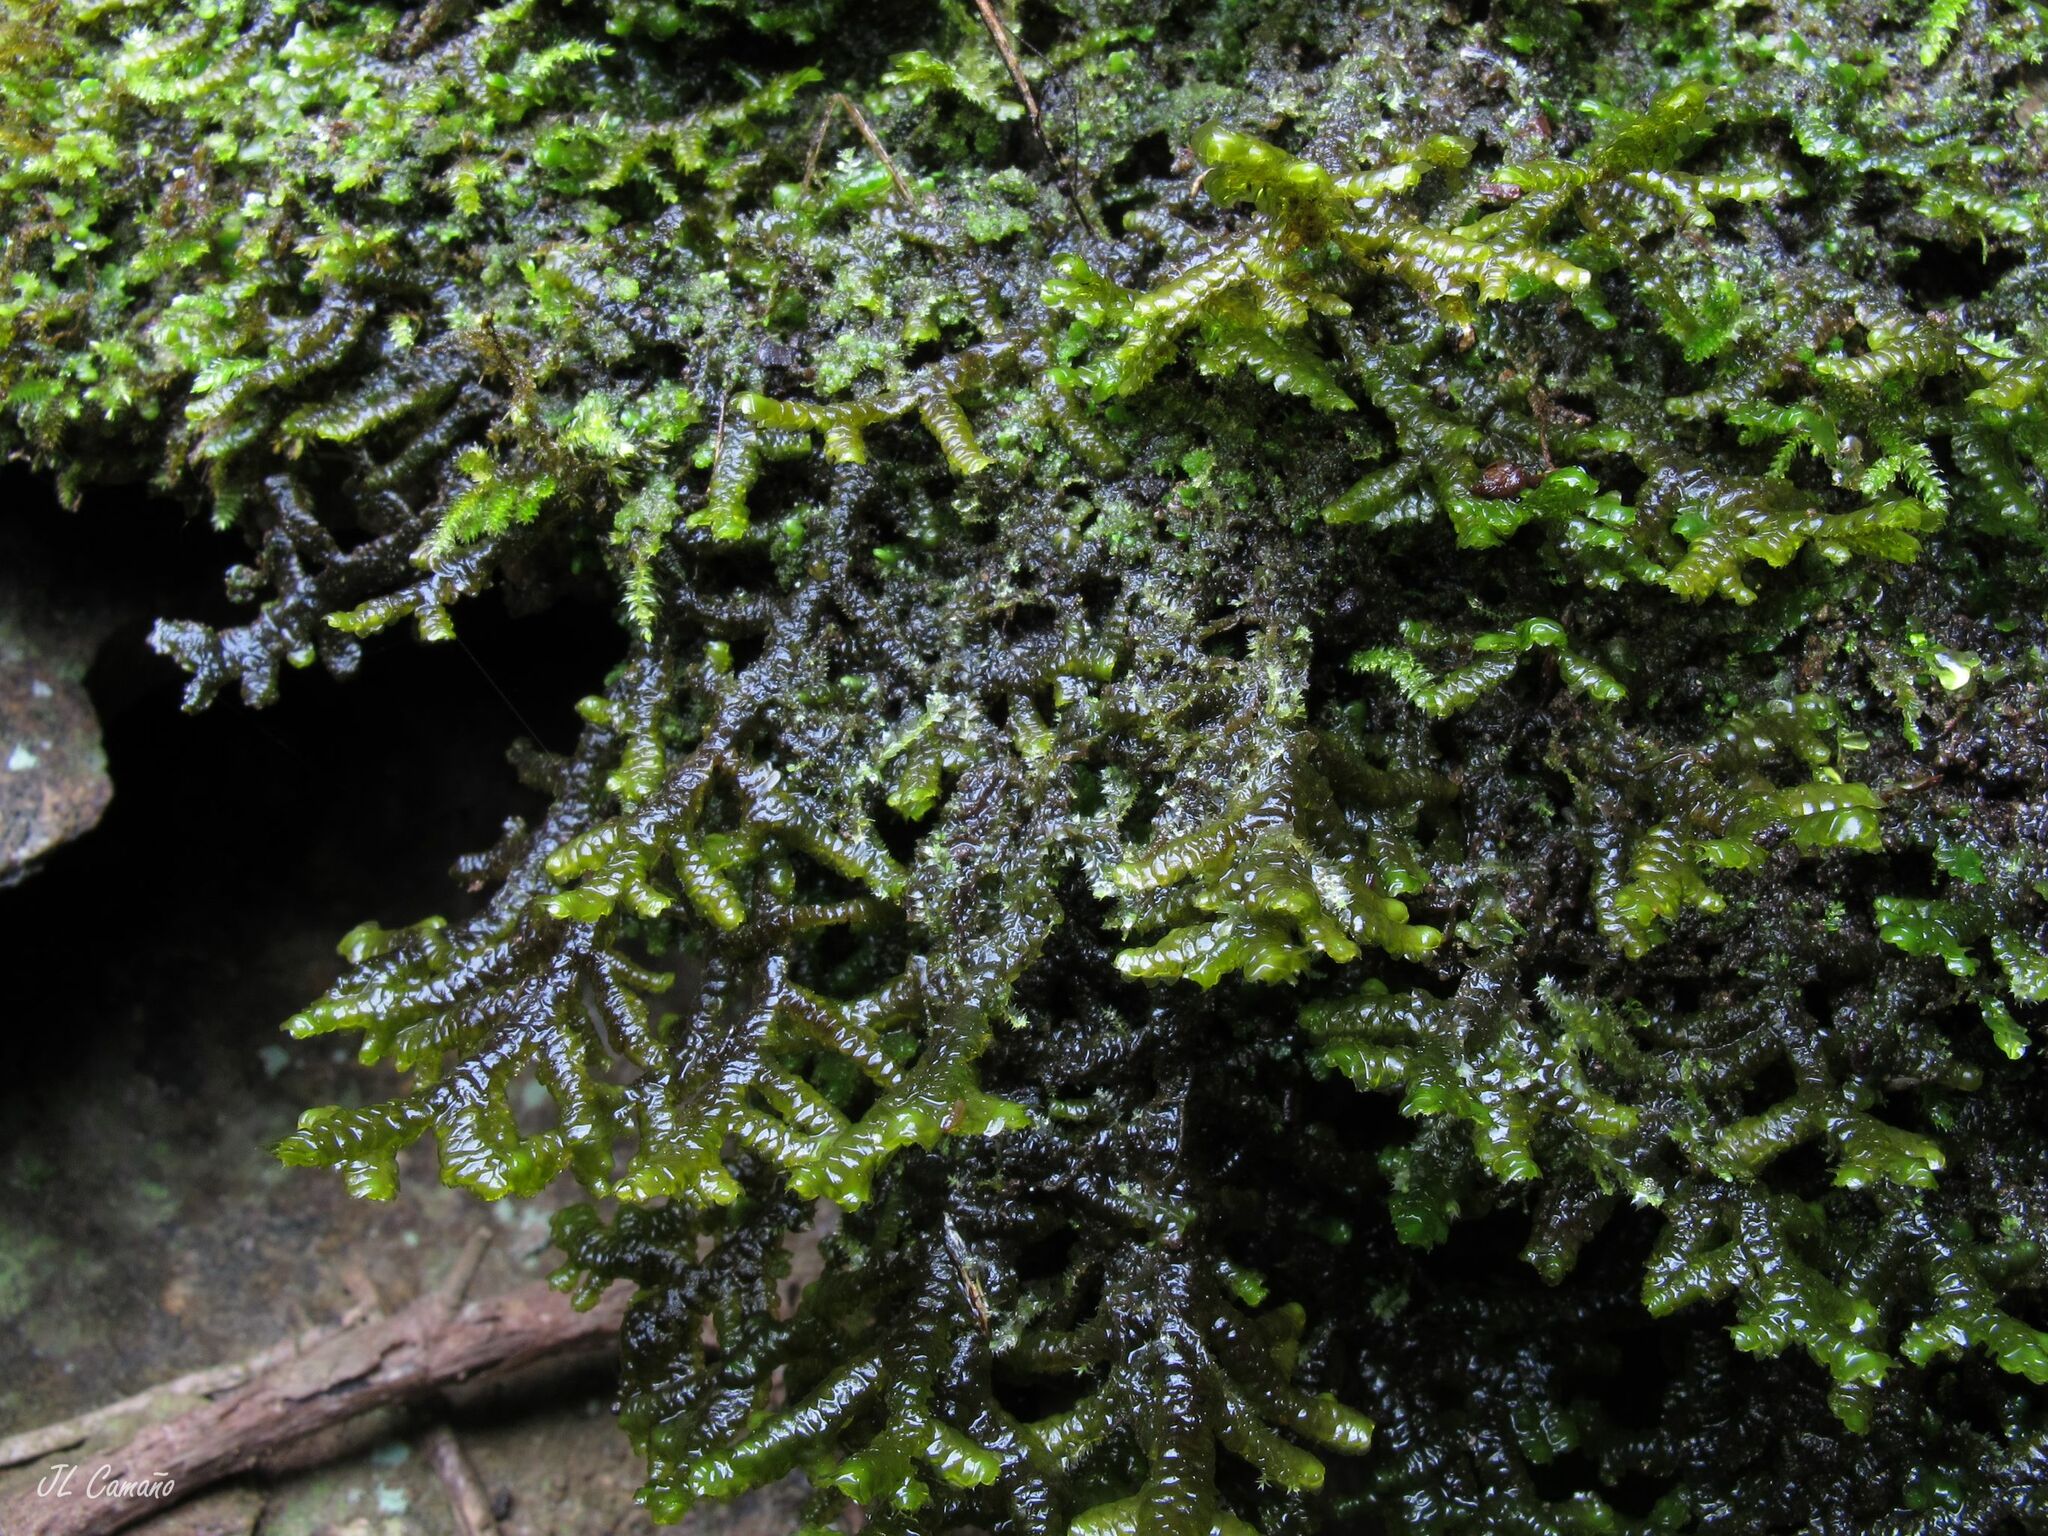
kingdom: Plantae
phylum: Marchantiophyta
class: Jungermanniopsida
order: Porellales
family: Porellaceae
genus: Porella
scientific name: Porella arboris-vitae
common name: Bitter scalewort
